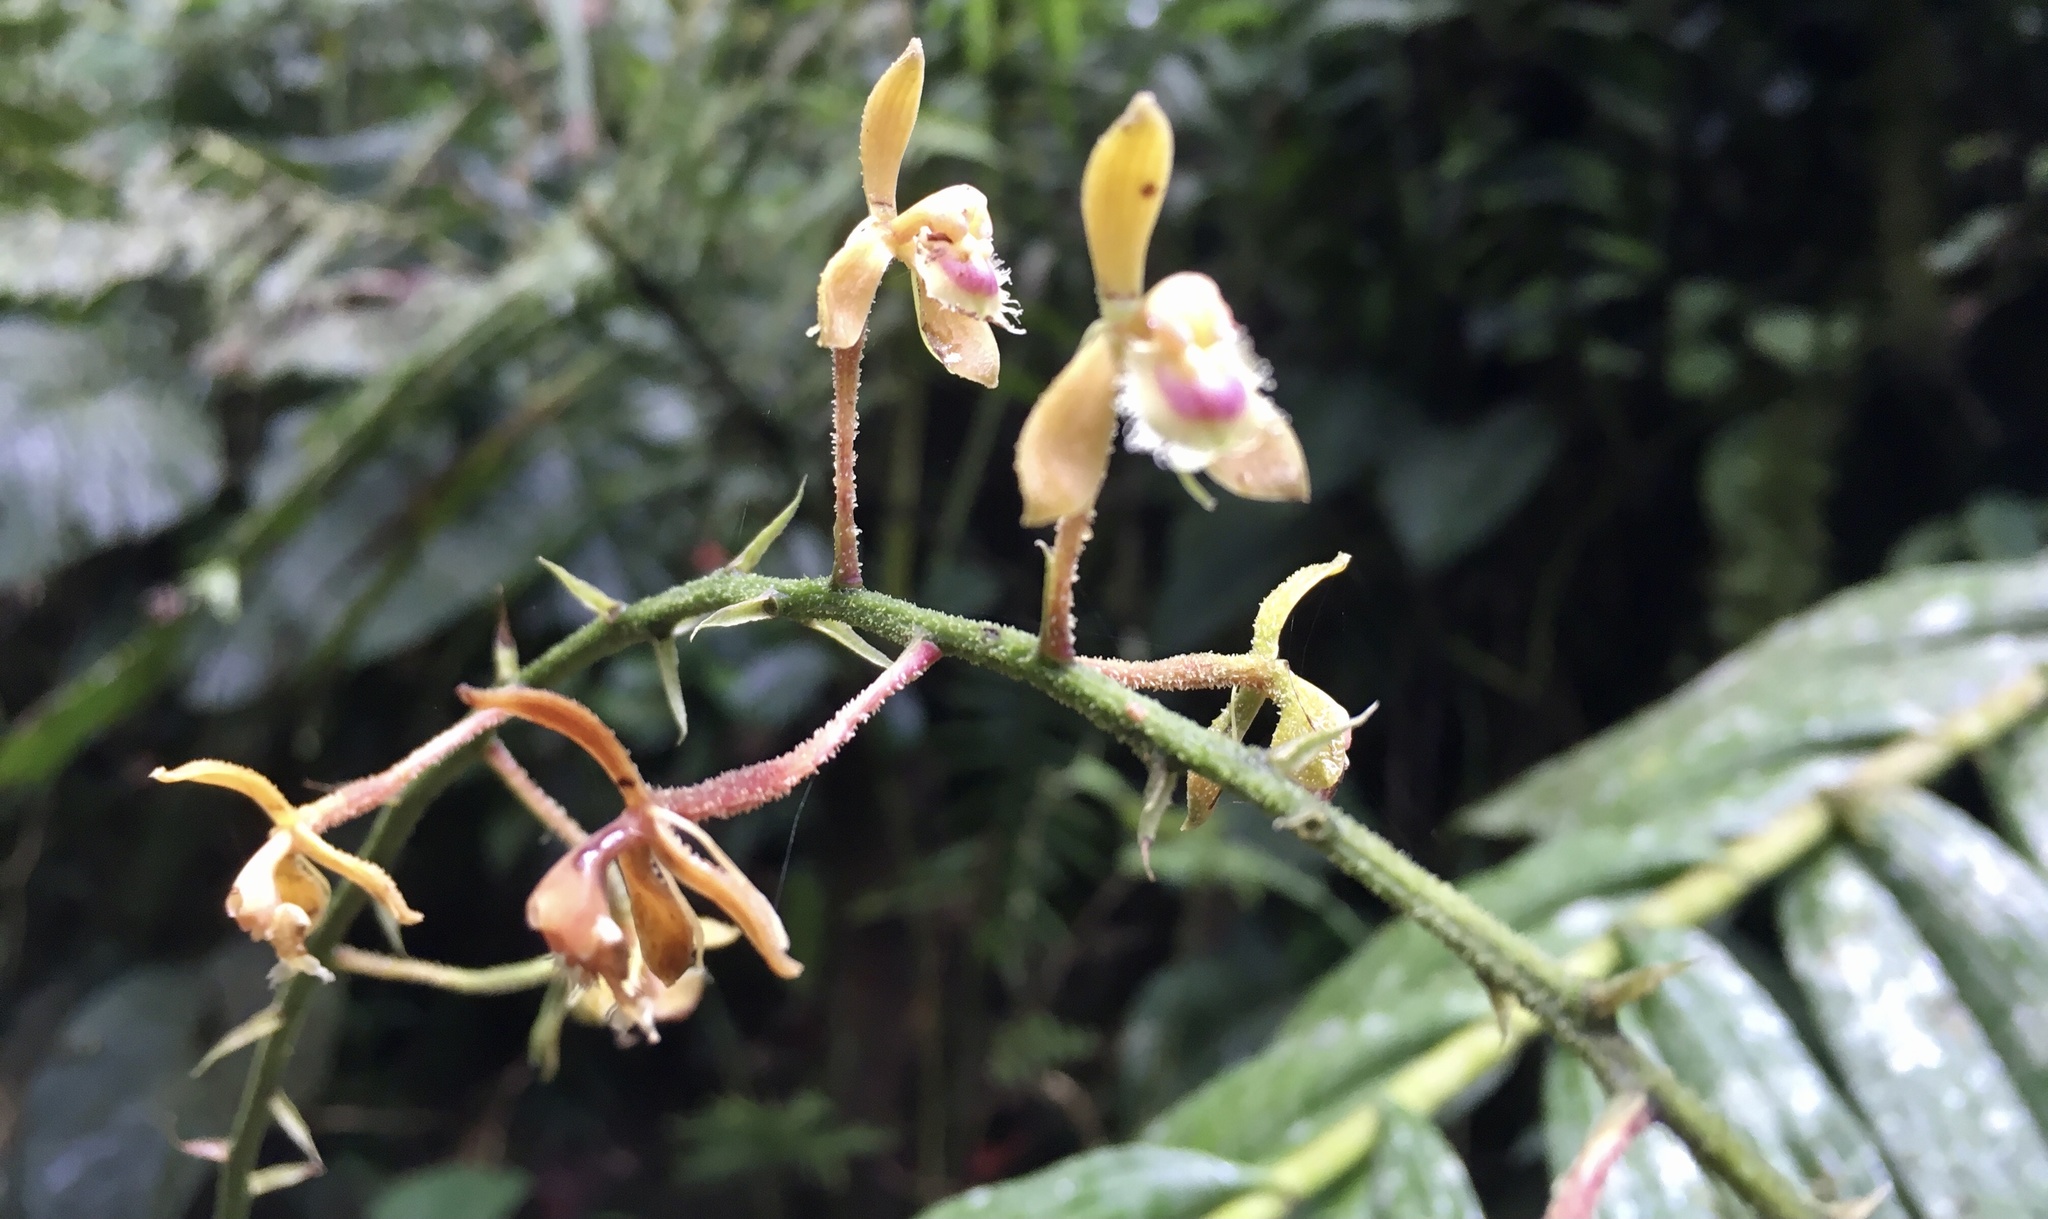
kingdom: Plantae
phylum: Tracheophyta
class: Liliopsida
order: Asparagales
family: Orchidaceae
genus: Epidendrum
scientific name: Epidendrum sodiroi
